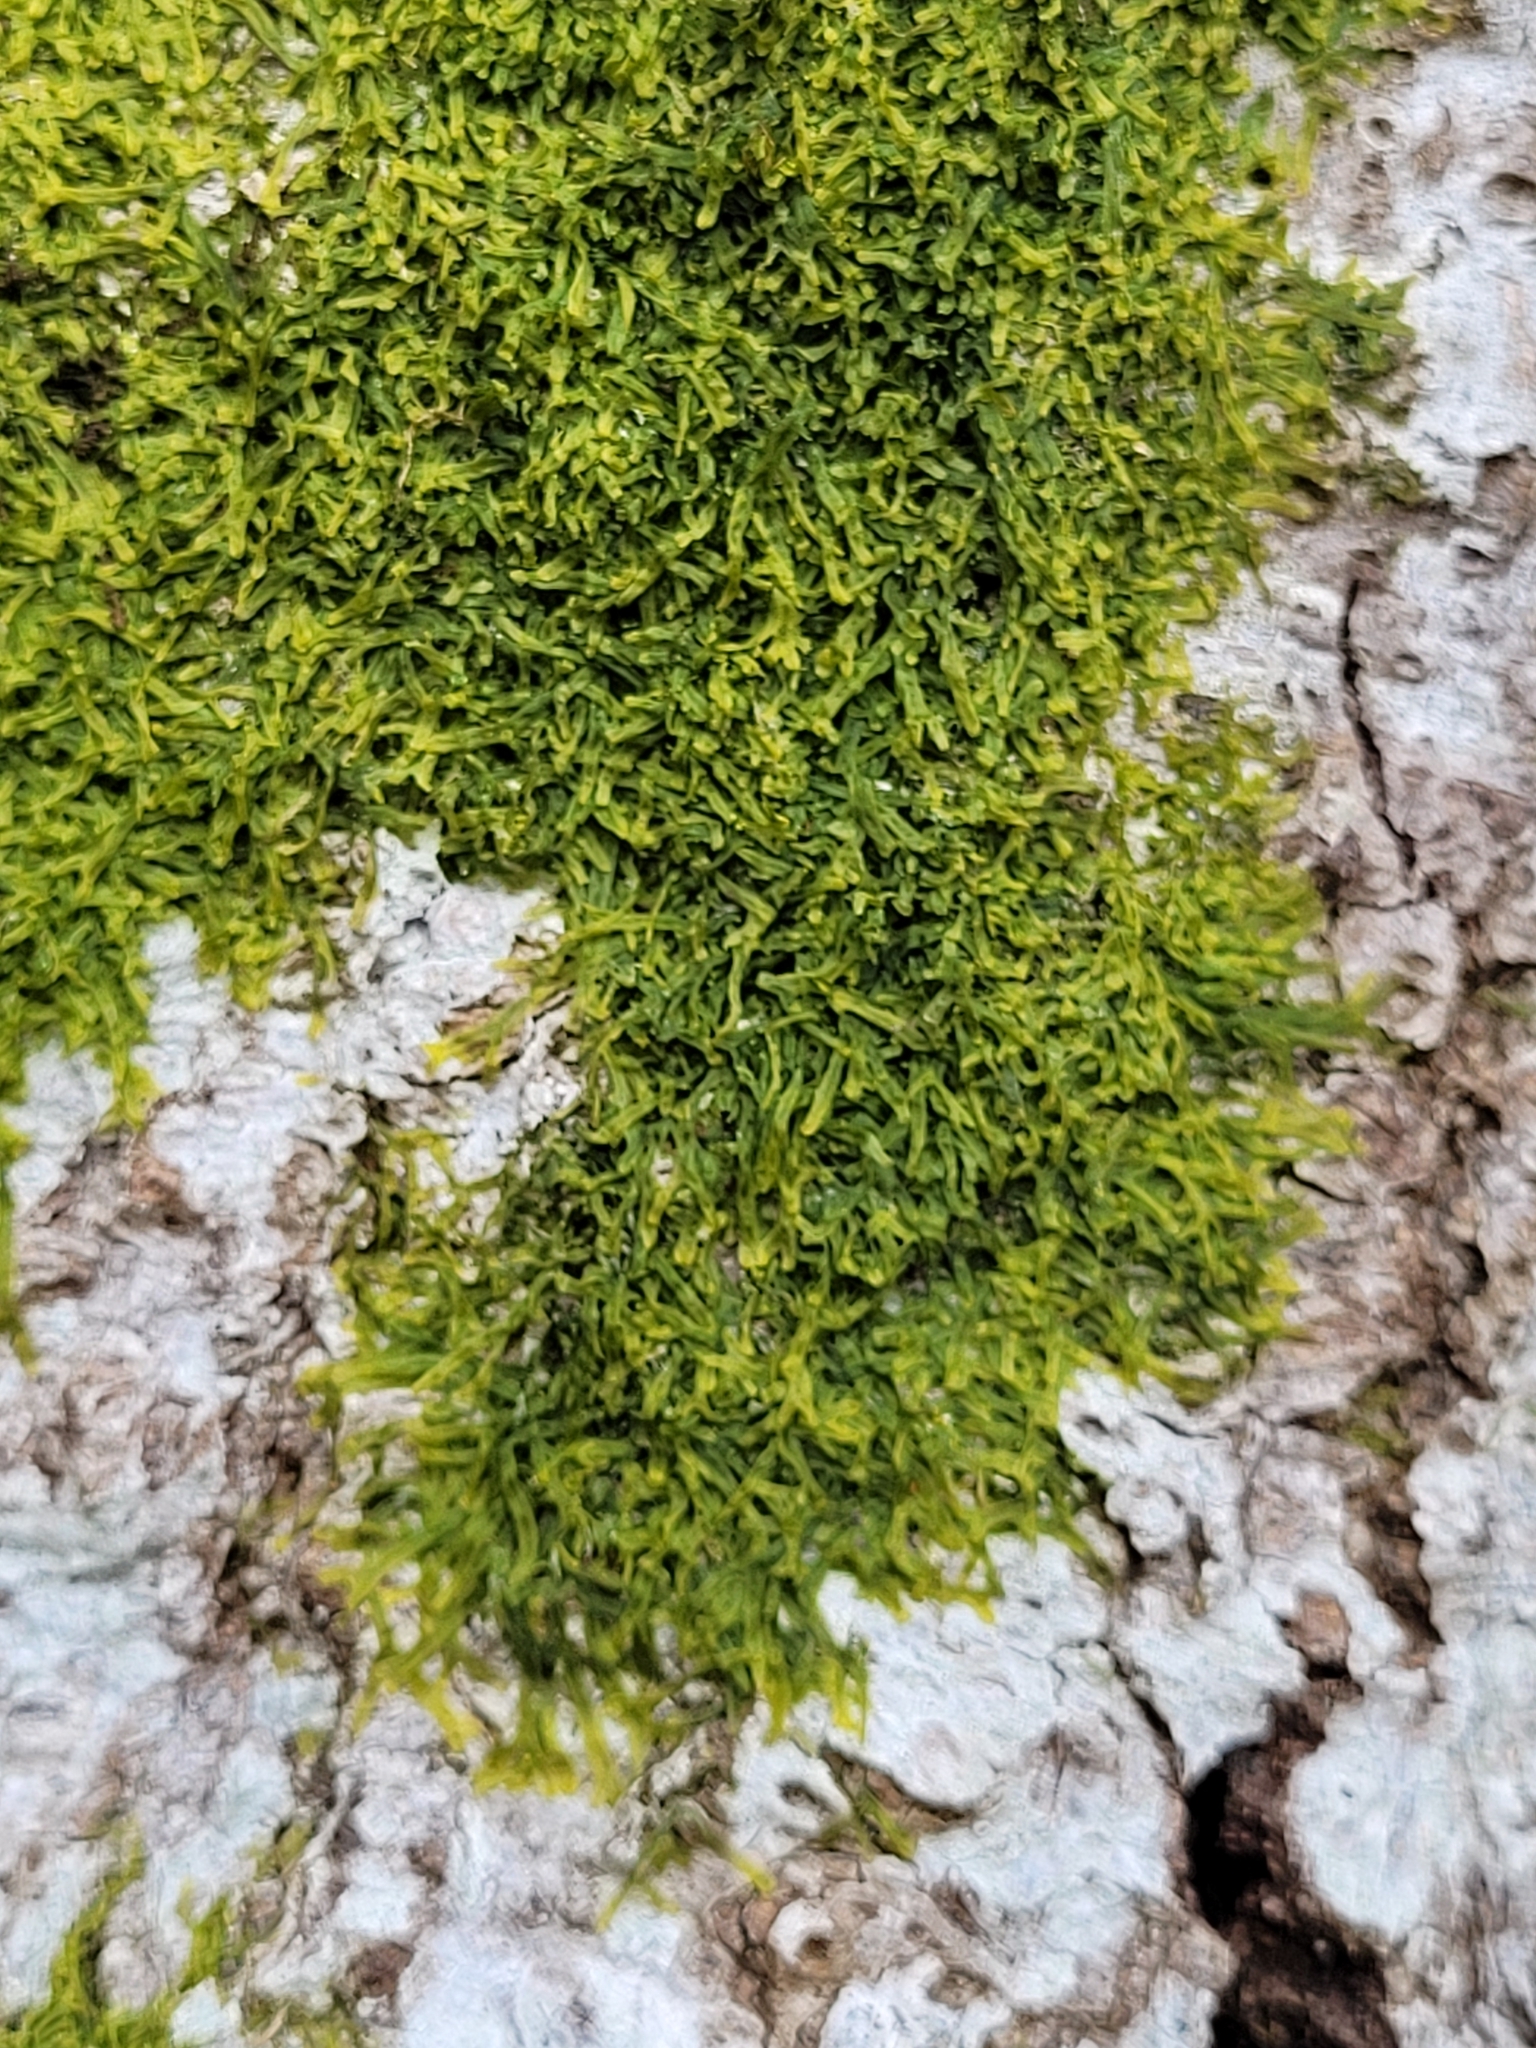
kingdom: Plantae
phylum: Marchantiophyta
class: Jungermanniopsida
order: Metzgeriales
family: Metzgeriaceae
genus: Metzgeria
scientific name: Metzgeria furcata
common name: Forked veilwort
